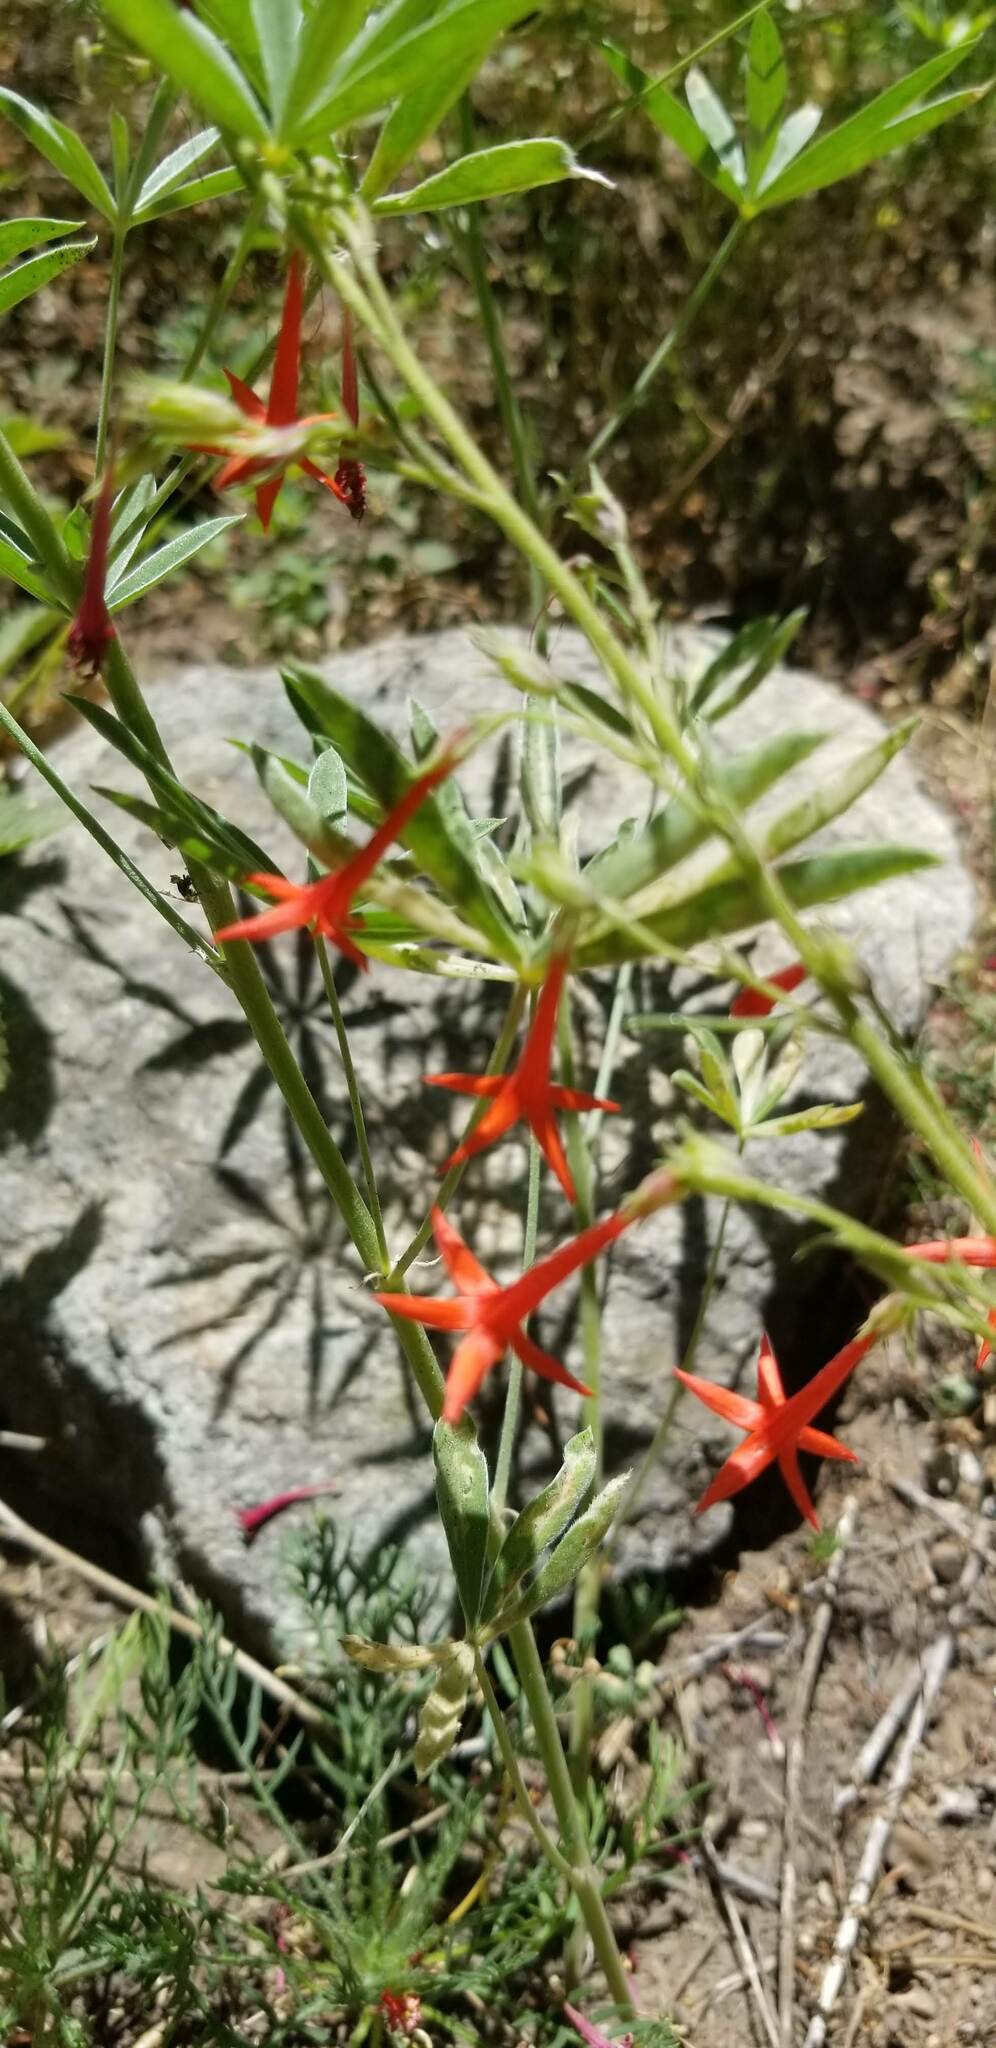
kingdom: Plantae
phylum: Tracheophyta
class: Magnoliopsida
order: Ericales
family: Polemoniaceae
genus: Ipomopsis
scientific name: Ipomopsis aggregata
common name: Scarlet gilia
